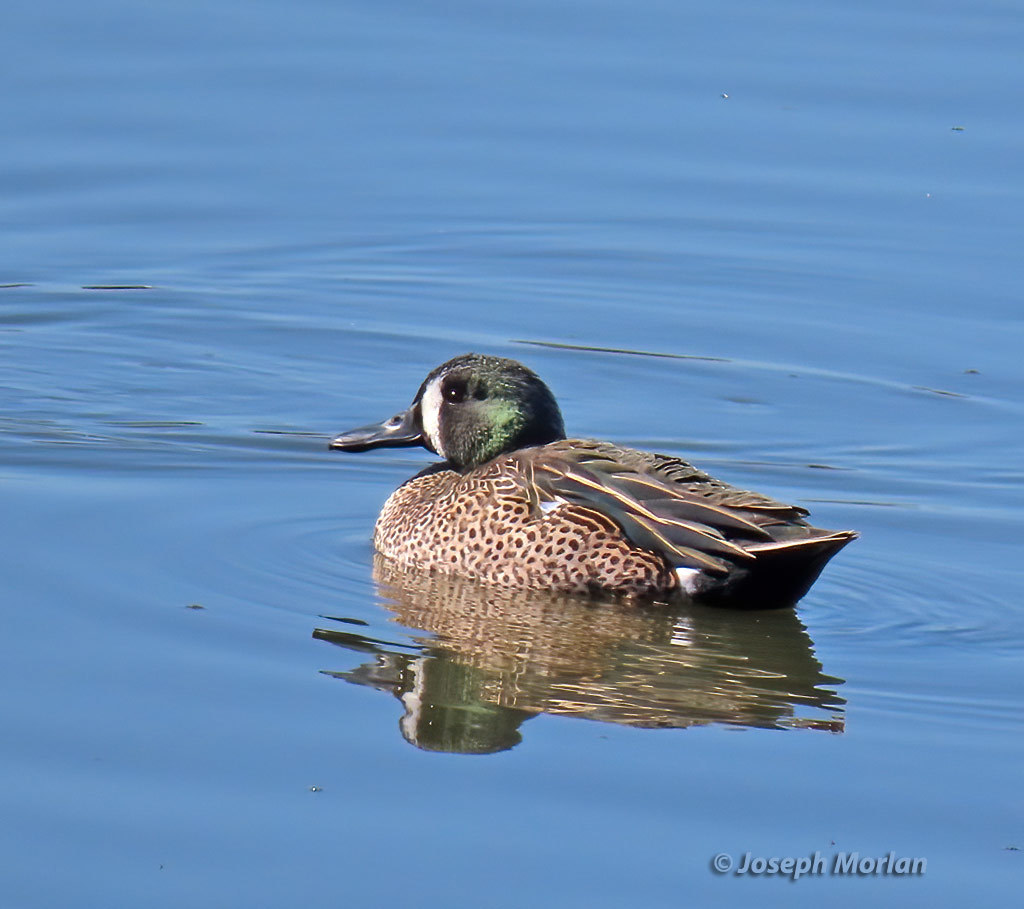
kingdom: Animalia
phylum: Chordata
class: Aves
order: Anseriformes
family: Anatidae
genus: Spatula
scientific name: Spatula discors
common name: Blue-winged teal
